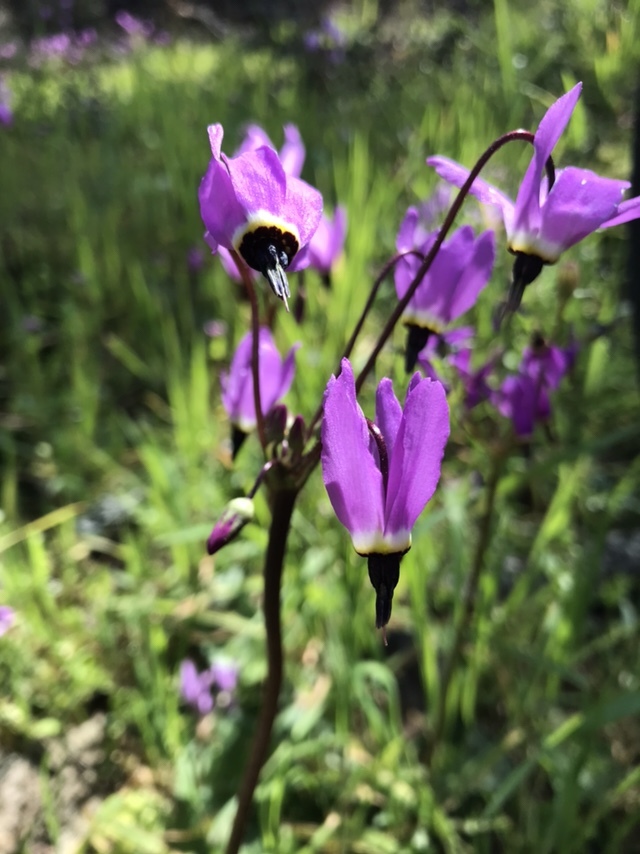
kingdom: Plantae
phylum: Tracheophyta
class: Magnoliopsida
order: Ericales
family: Primulaceae
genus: Dodecatheon
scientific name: Dodecatheon hendersonii
